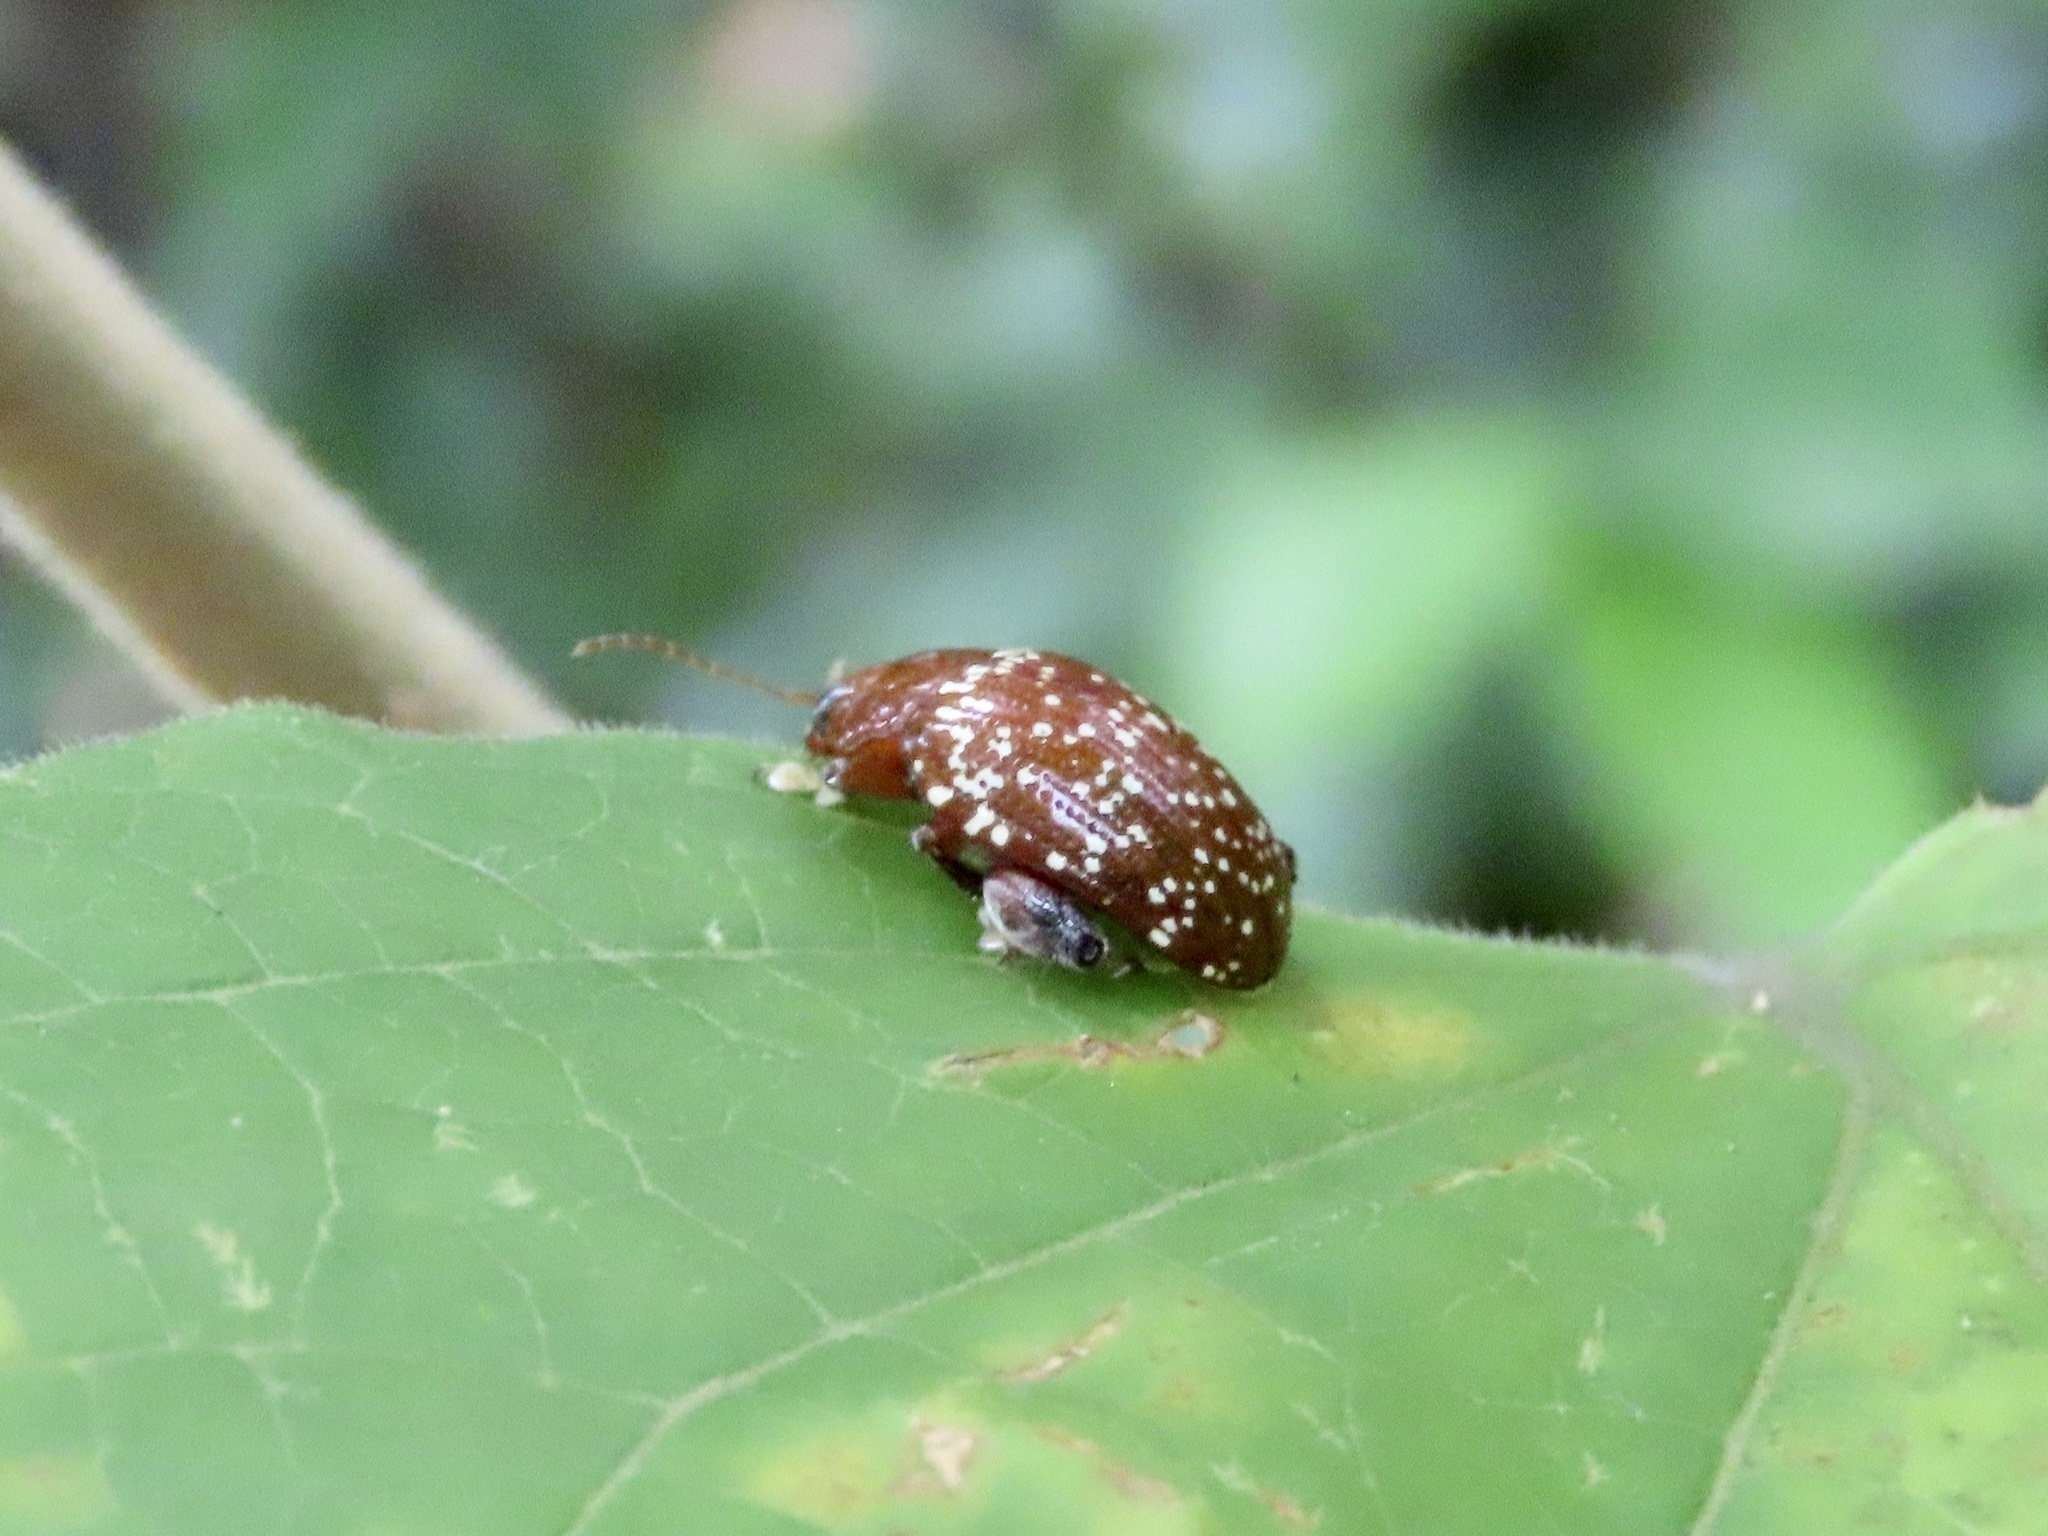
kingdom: Animalia
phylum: Arthropoda
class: Insecta
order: Coleoptera
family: Chrysomelidae
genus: Asiophrida
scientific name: Asiophrida
